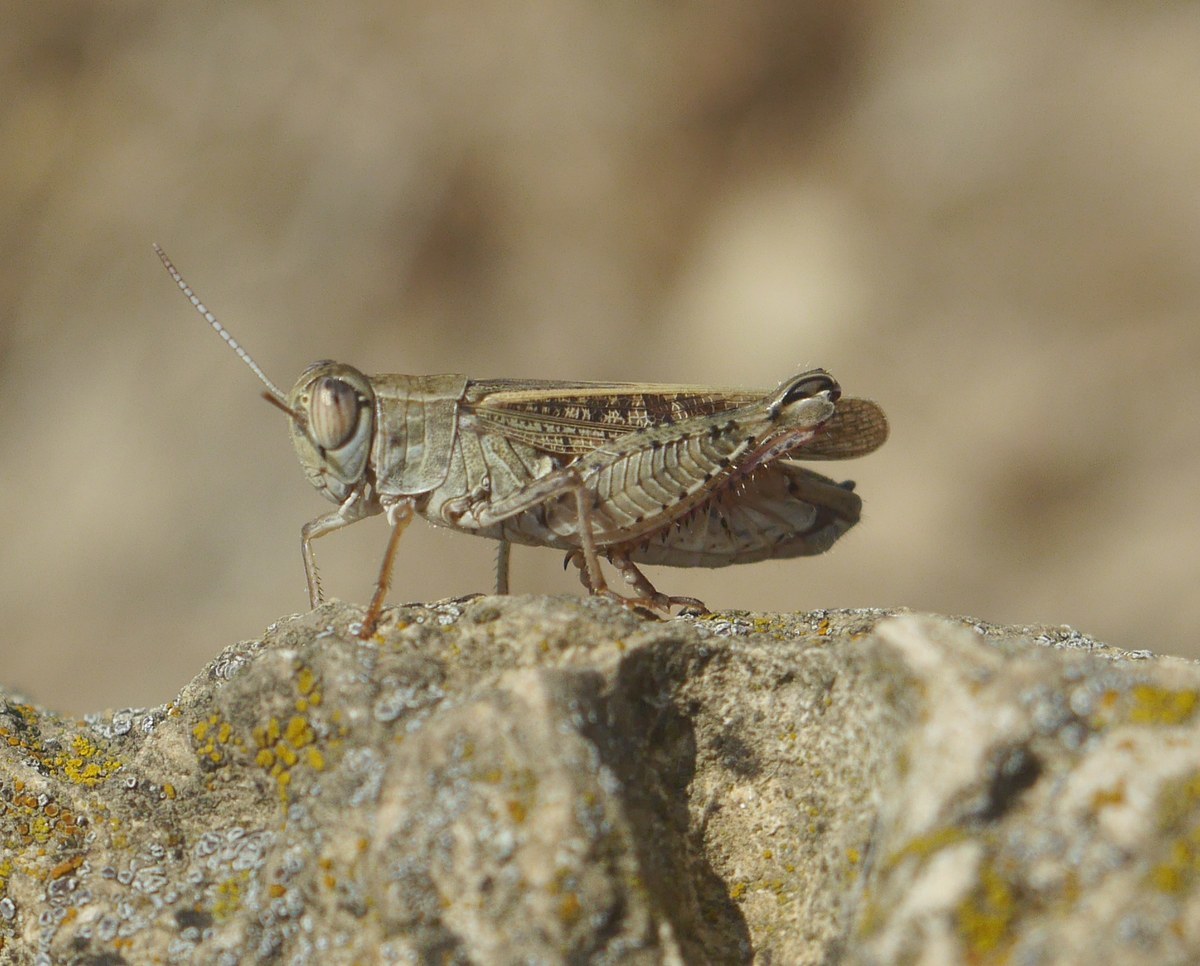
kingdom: Animalia
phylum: Arthropoda
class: Insecta
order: Orthoptera
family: Acrididae
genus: Calliptamus
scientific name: Calliptamus italicus
